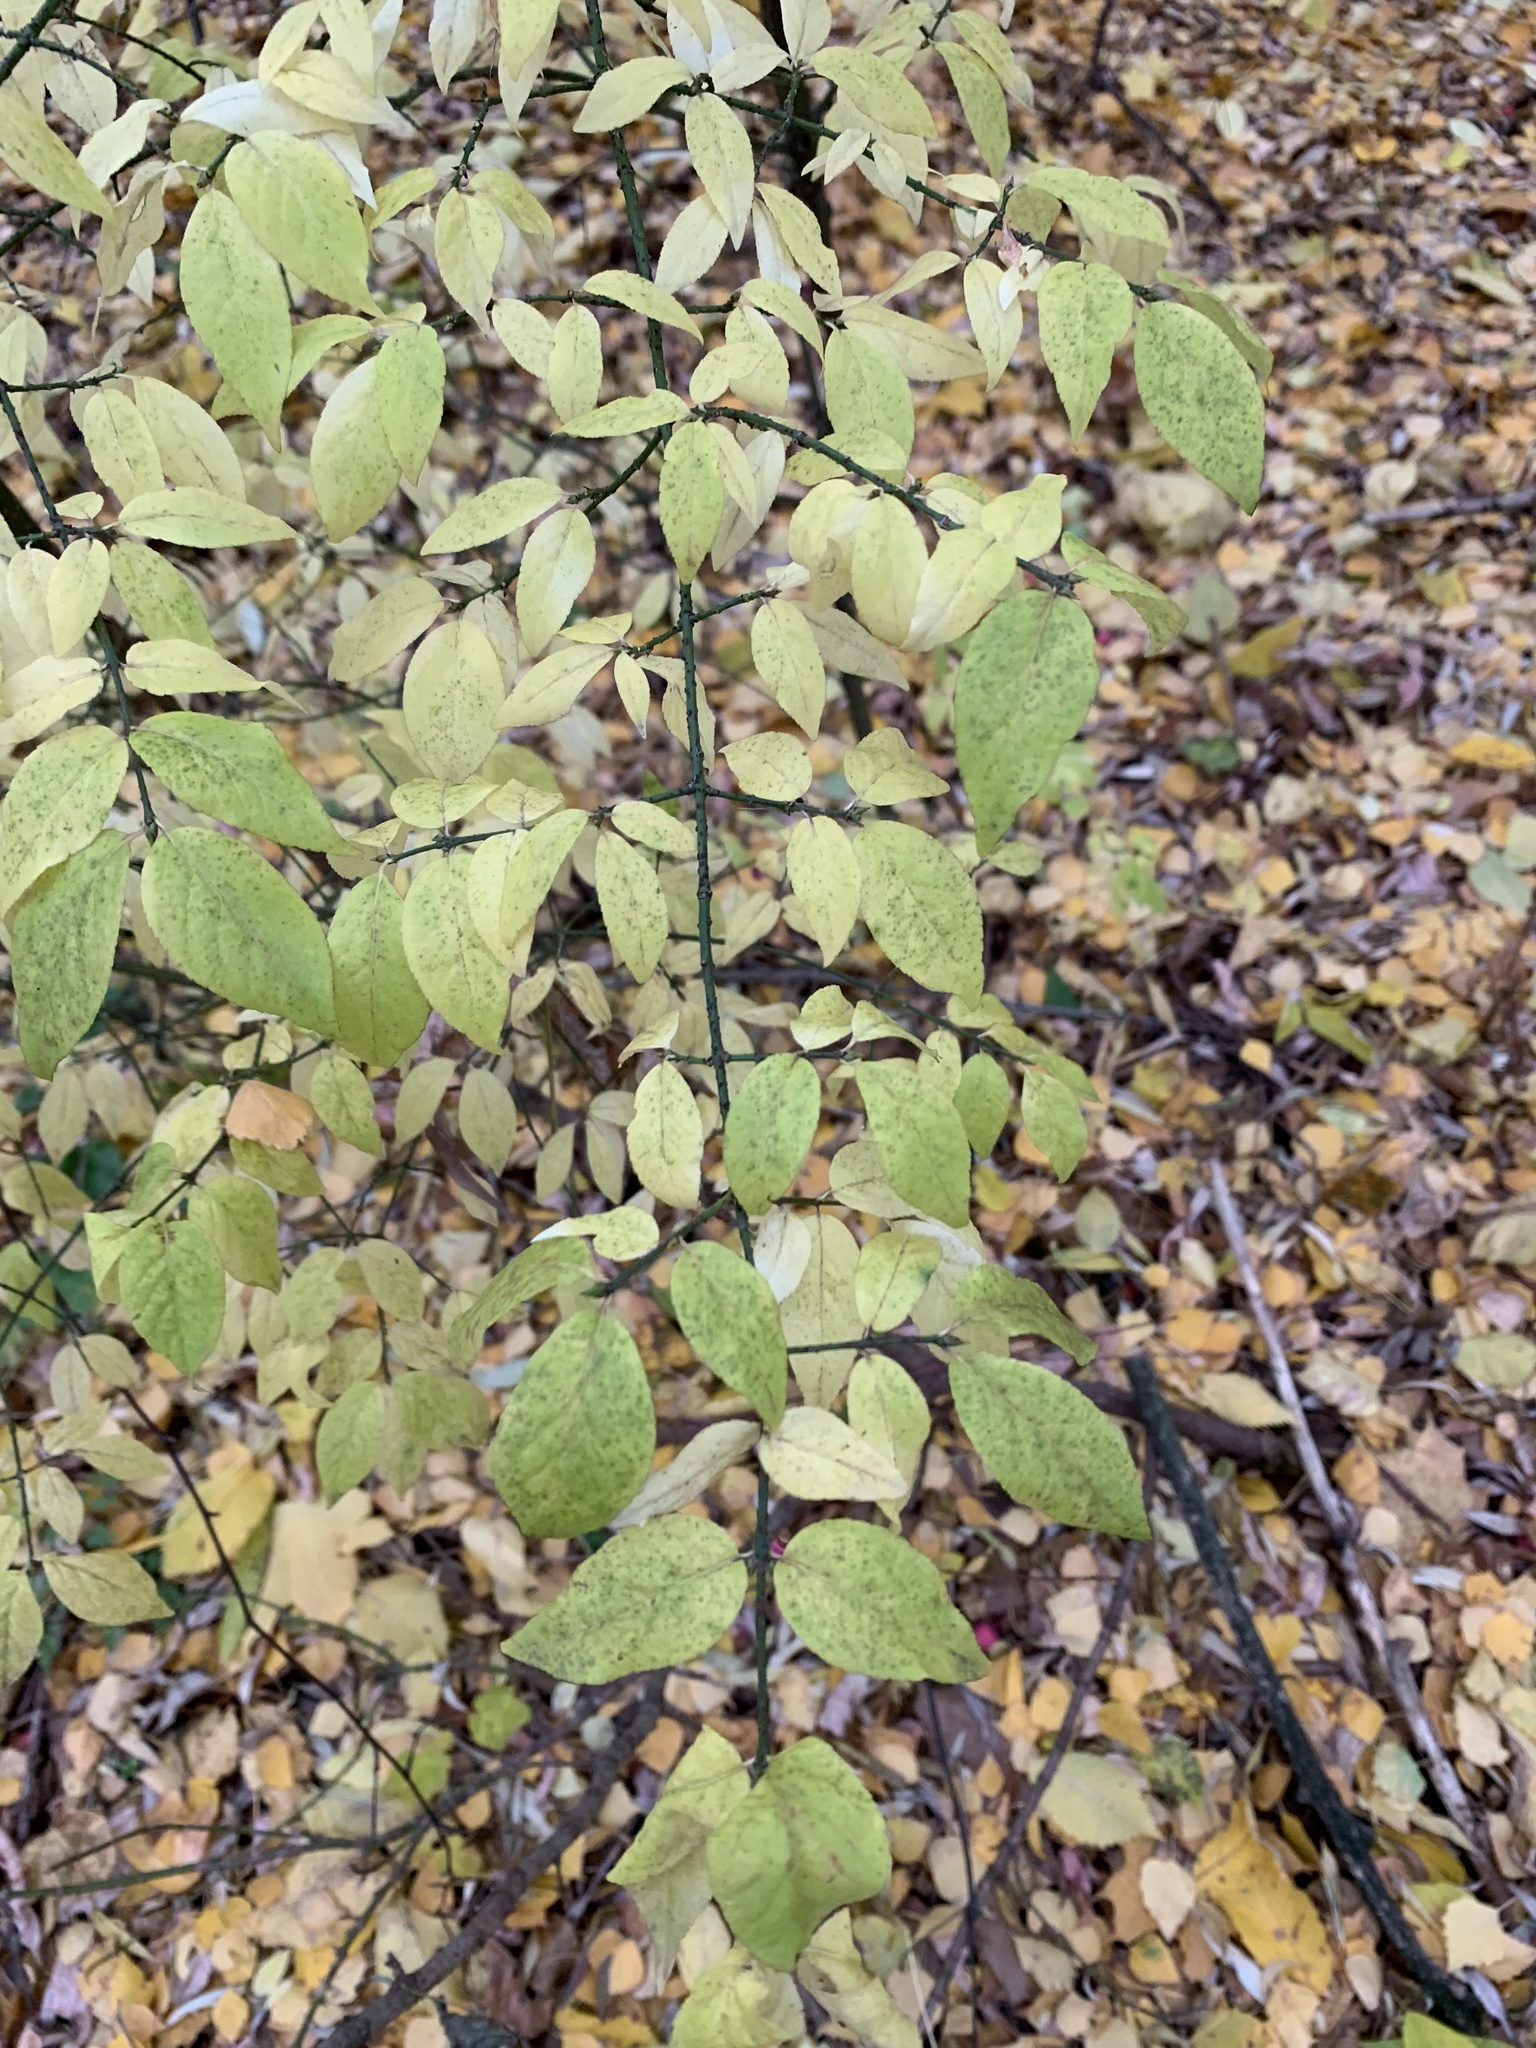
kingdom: Plantae
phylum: Tracheophyta
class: Magnoliopsida
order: Celastrales
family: Celastraceae
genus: Euonymus
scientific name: Euonymus verrucosus
